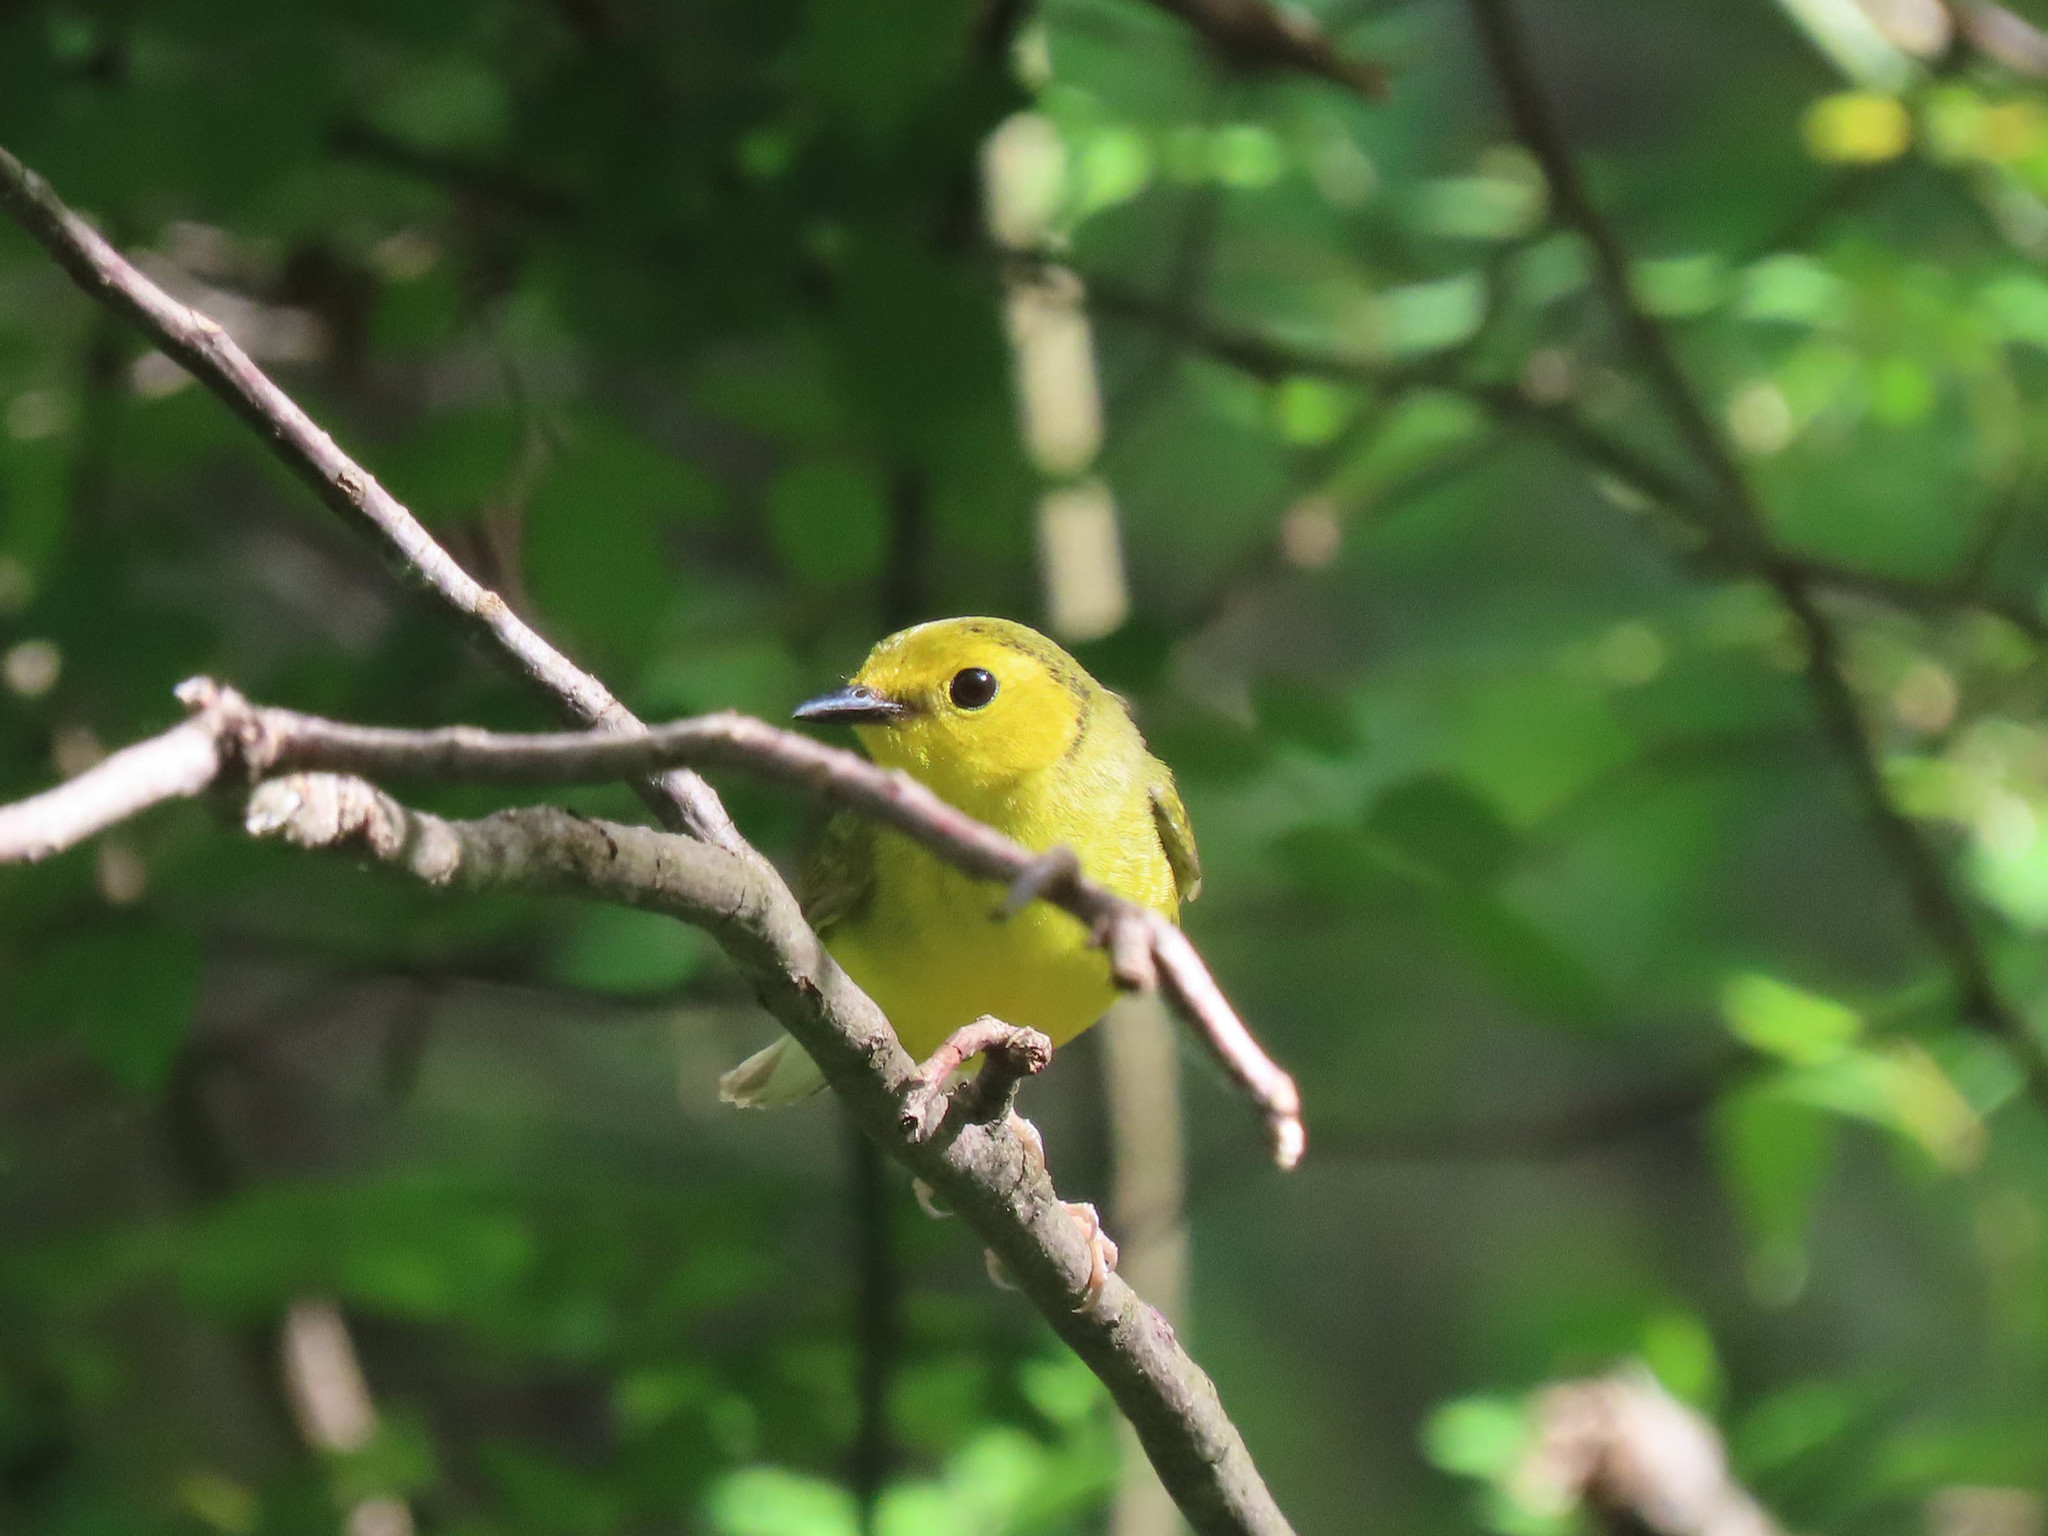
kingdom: Animalia
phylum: Chordata
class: Aves
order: Passeriformes
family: Parulidae
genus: Setophaga
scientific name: Setophaga citrina
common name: Hooded warbler
